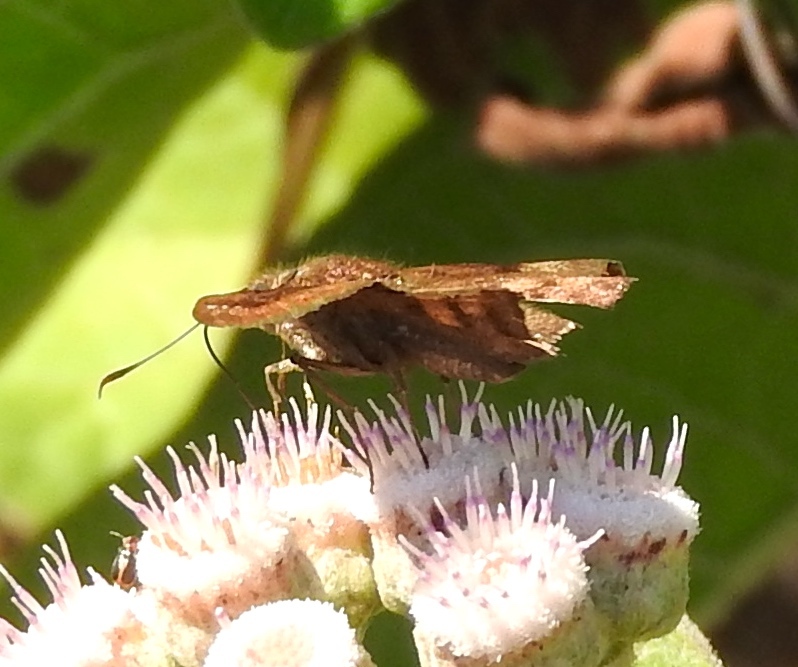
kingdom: Animalia
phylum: Arthropoda
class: Insecta
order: Lepidoptera
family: Hesperiidae
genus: Pyrginae
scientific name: Pyrginae
